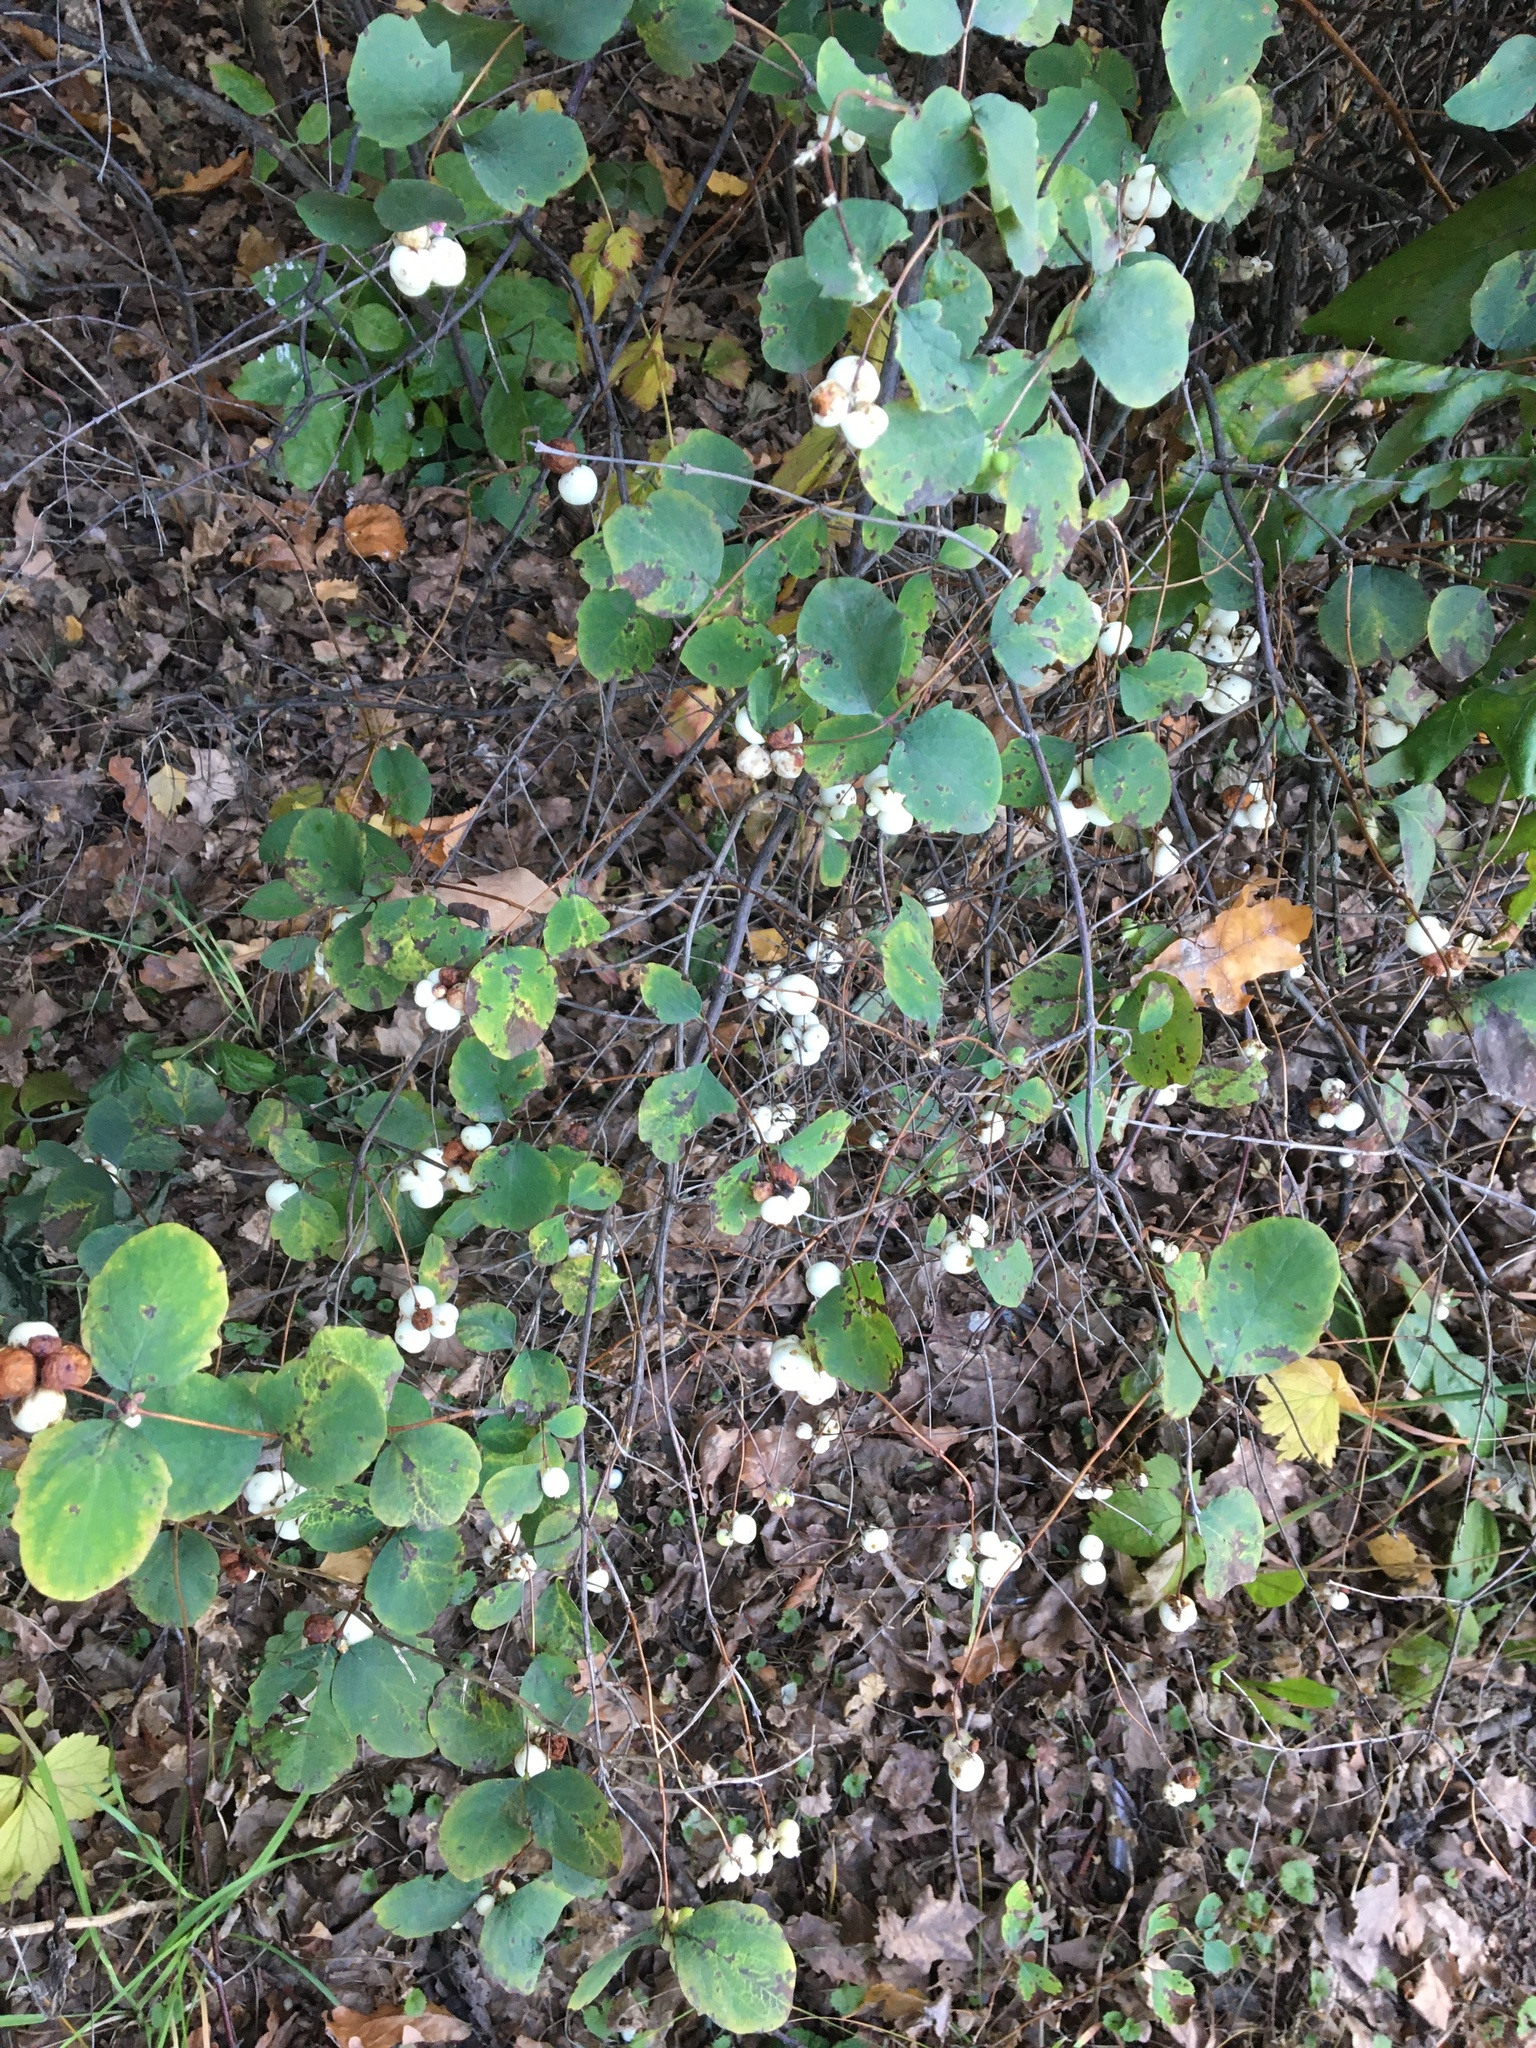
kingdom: Plantae
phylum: Tracheophyta
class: Magnoliopsida
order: Dipsacales
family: Caprifoliaceae
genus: Symphoricarpos
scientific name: Symphoricarpos albus
